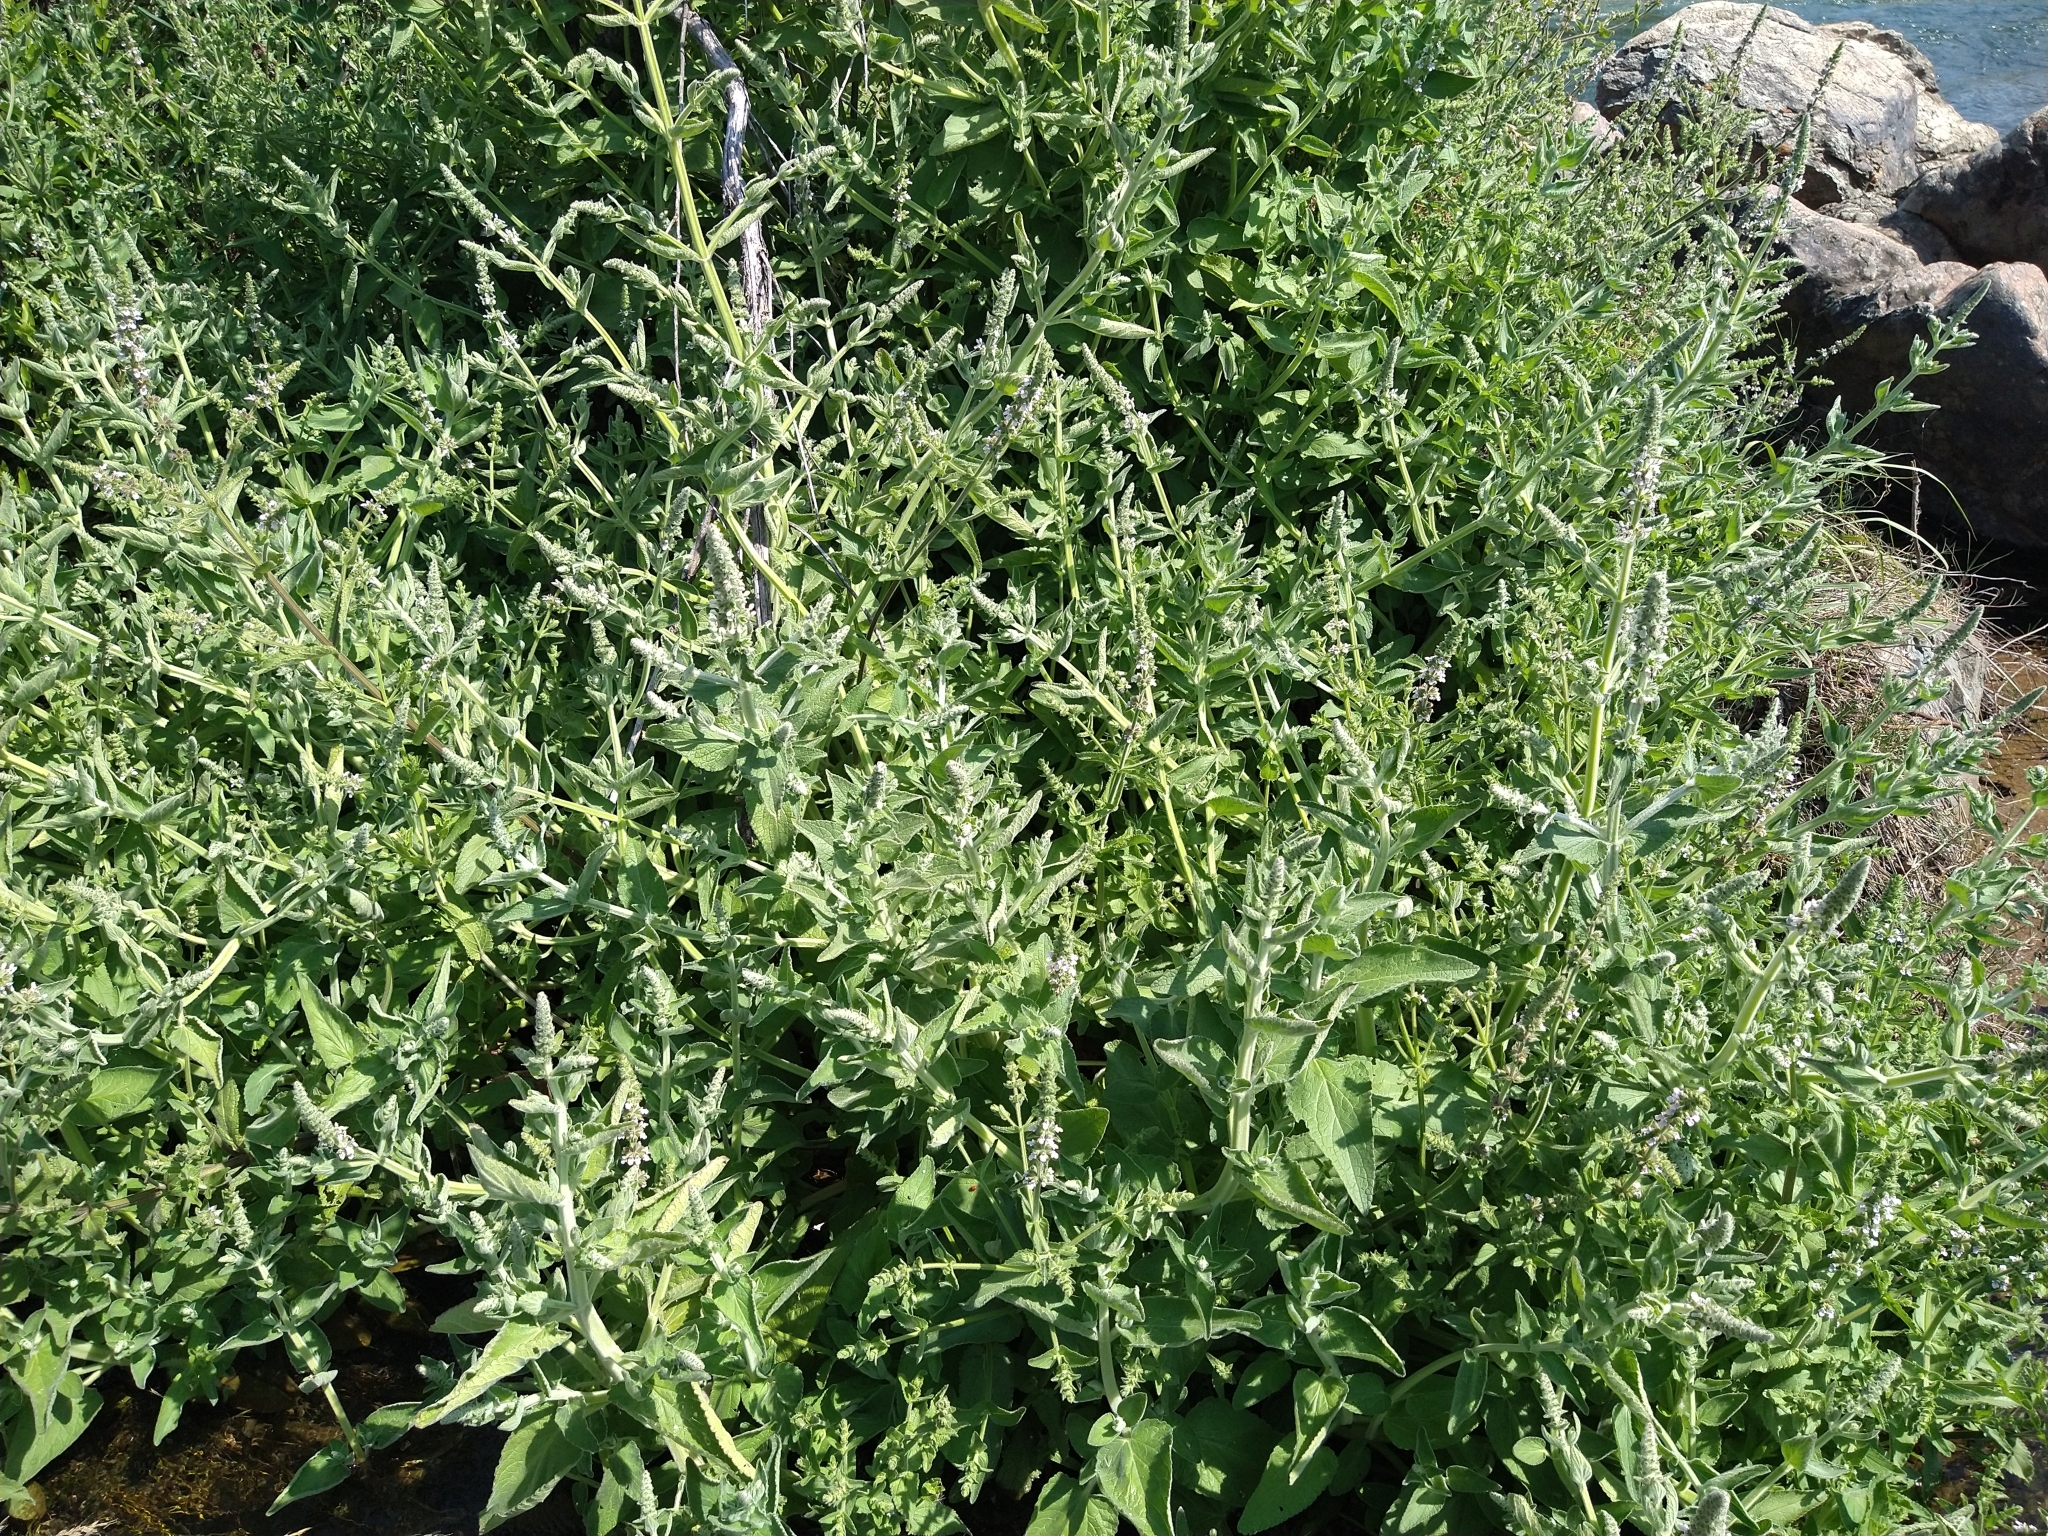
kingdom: Plantae
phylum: Tracheophyta
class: Magnoliopsida
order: Lamiales
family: Lamiaceae
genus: Stachys
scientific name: Stachys albens
